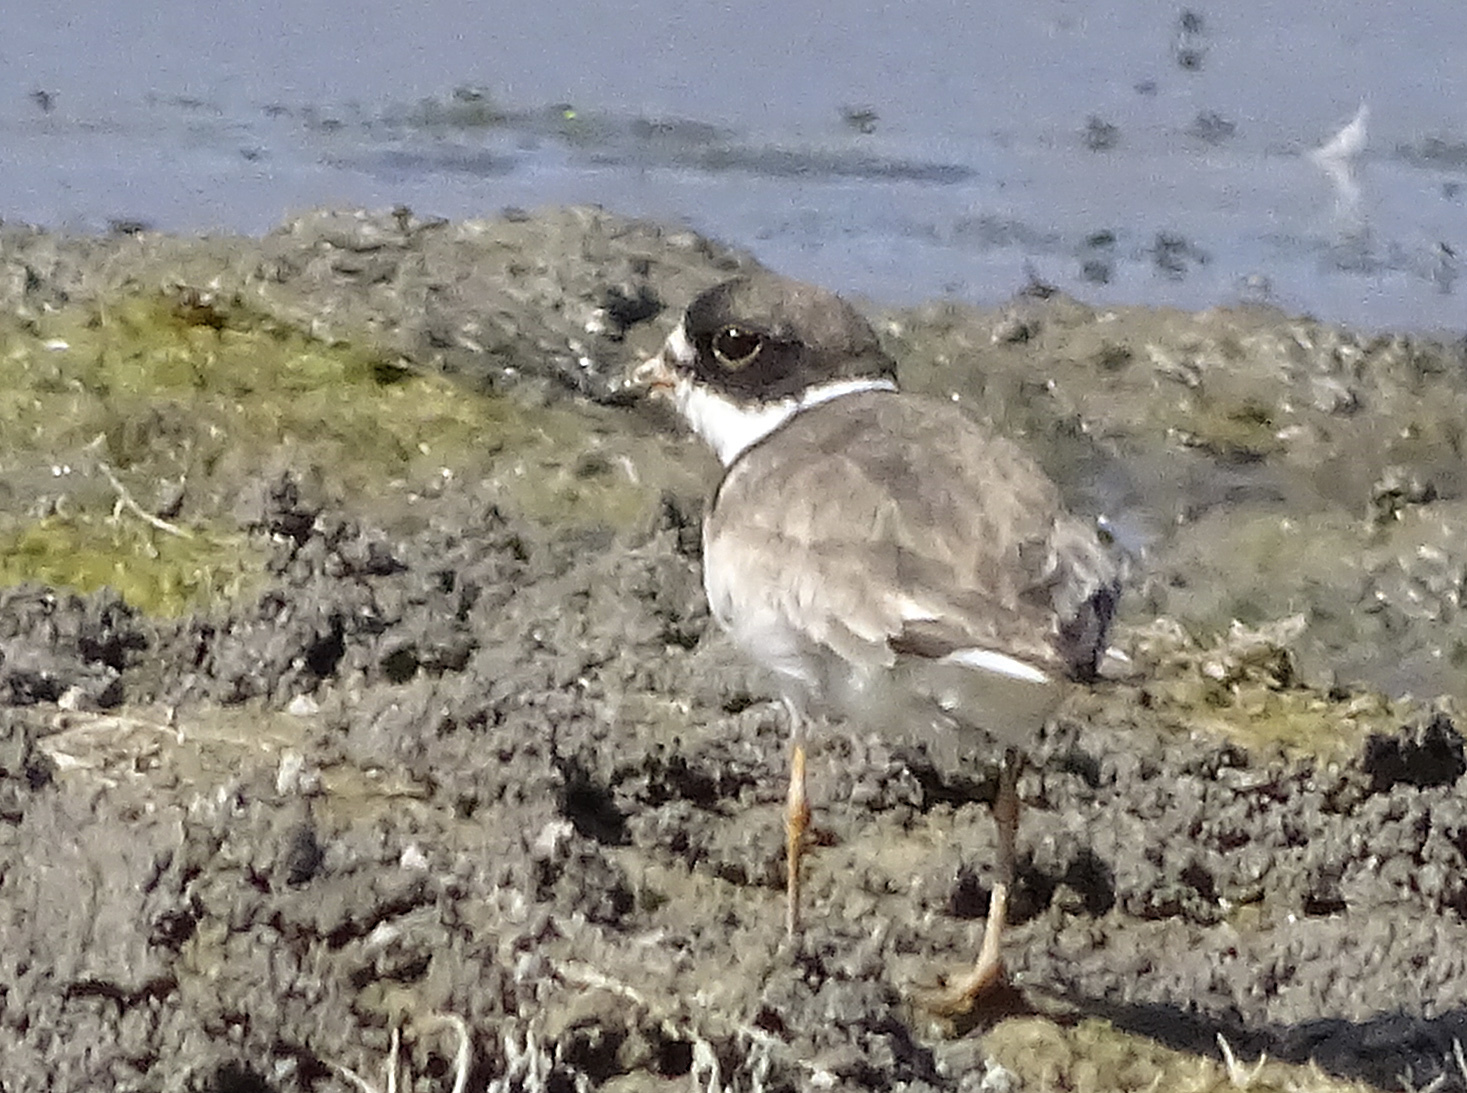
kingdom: Animalia
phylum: Chordata
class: Aves
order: Charadriiformes
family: Charadriidae
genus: Charadrius
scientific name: Charadrius semipalmatus
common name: Semipalmated plover
